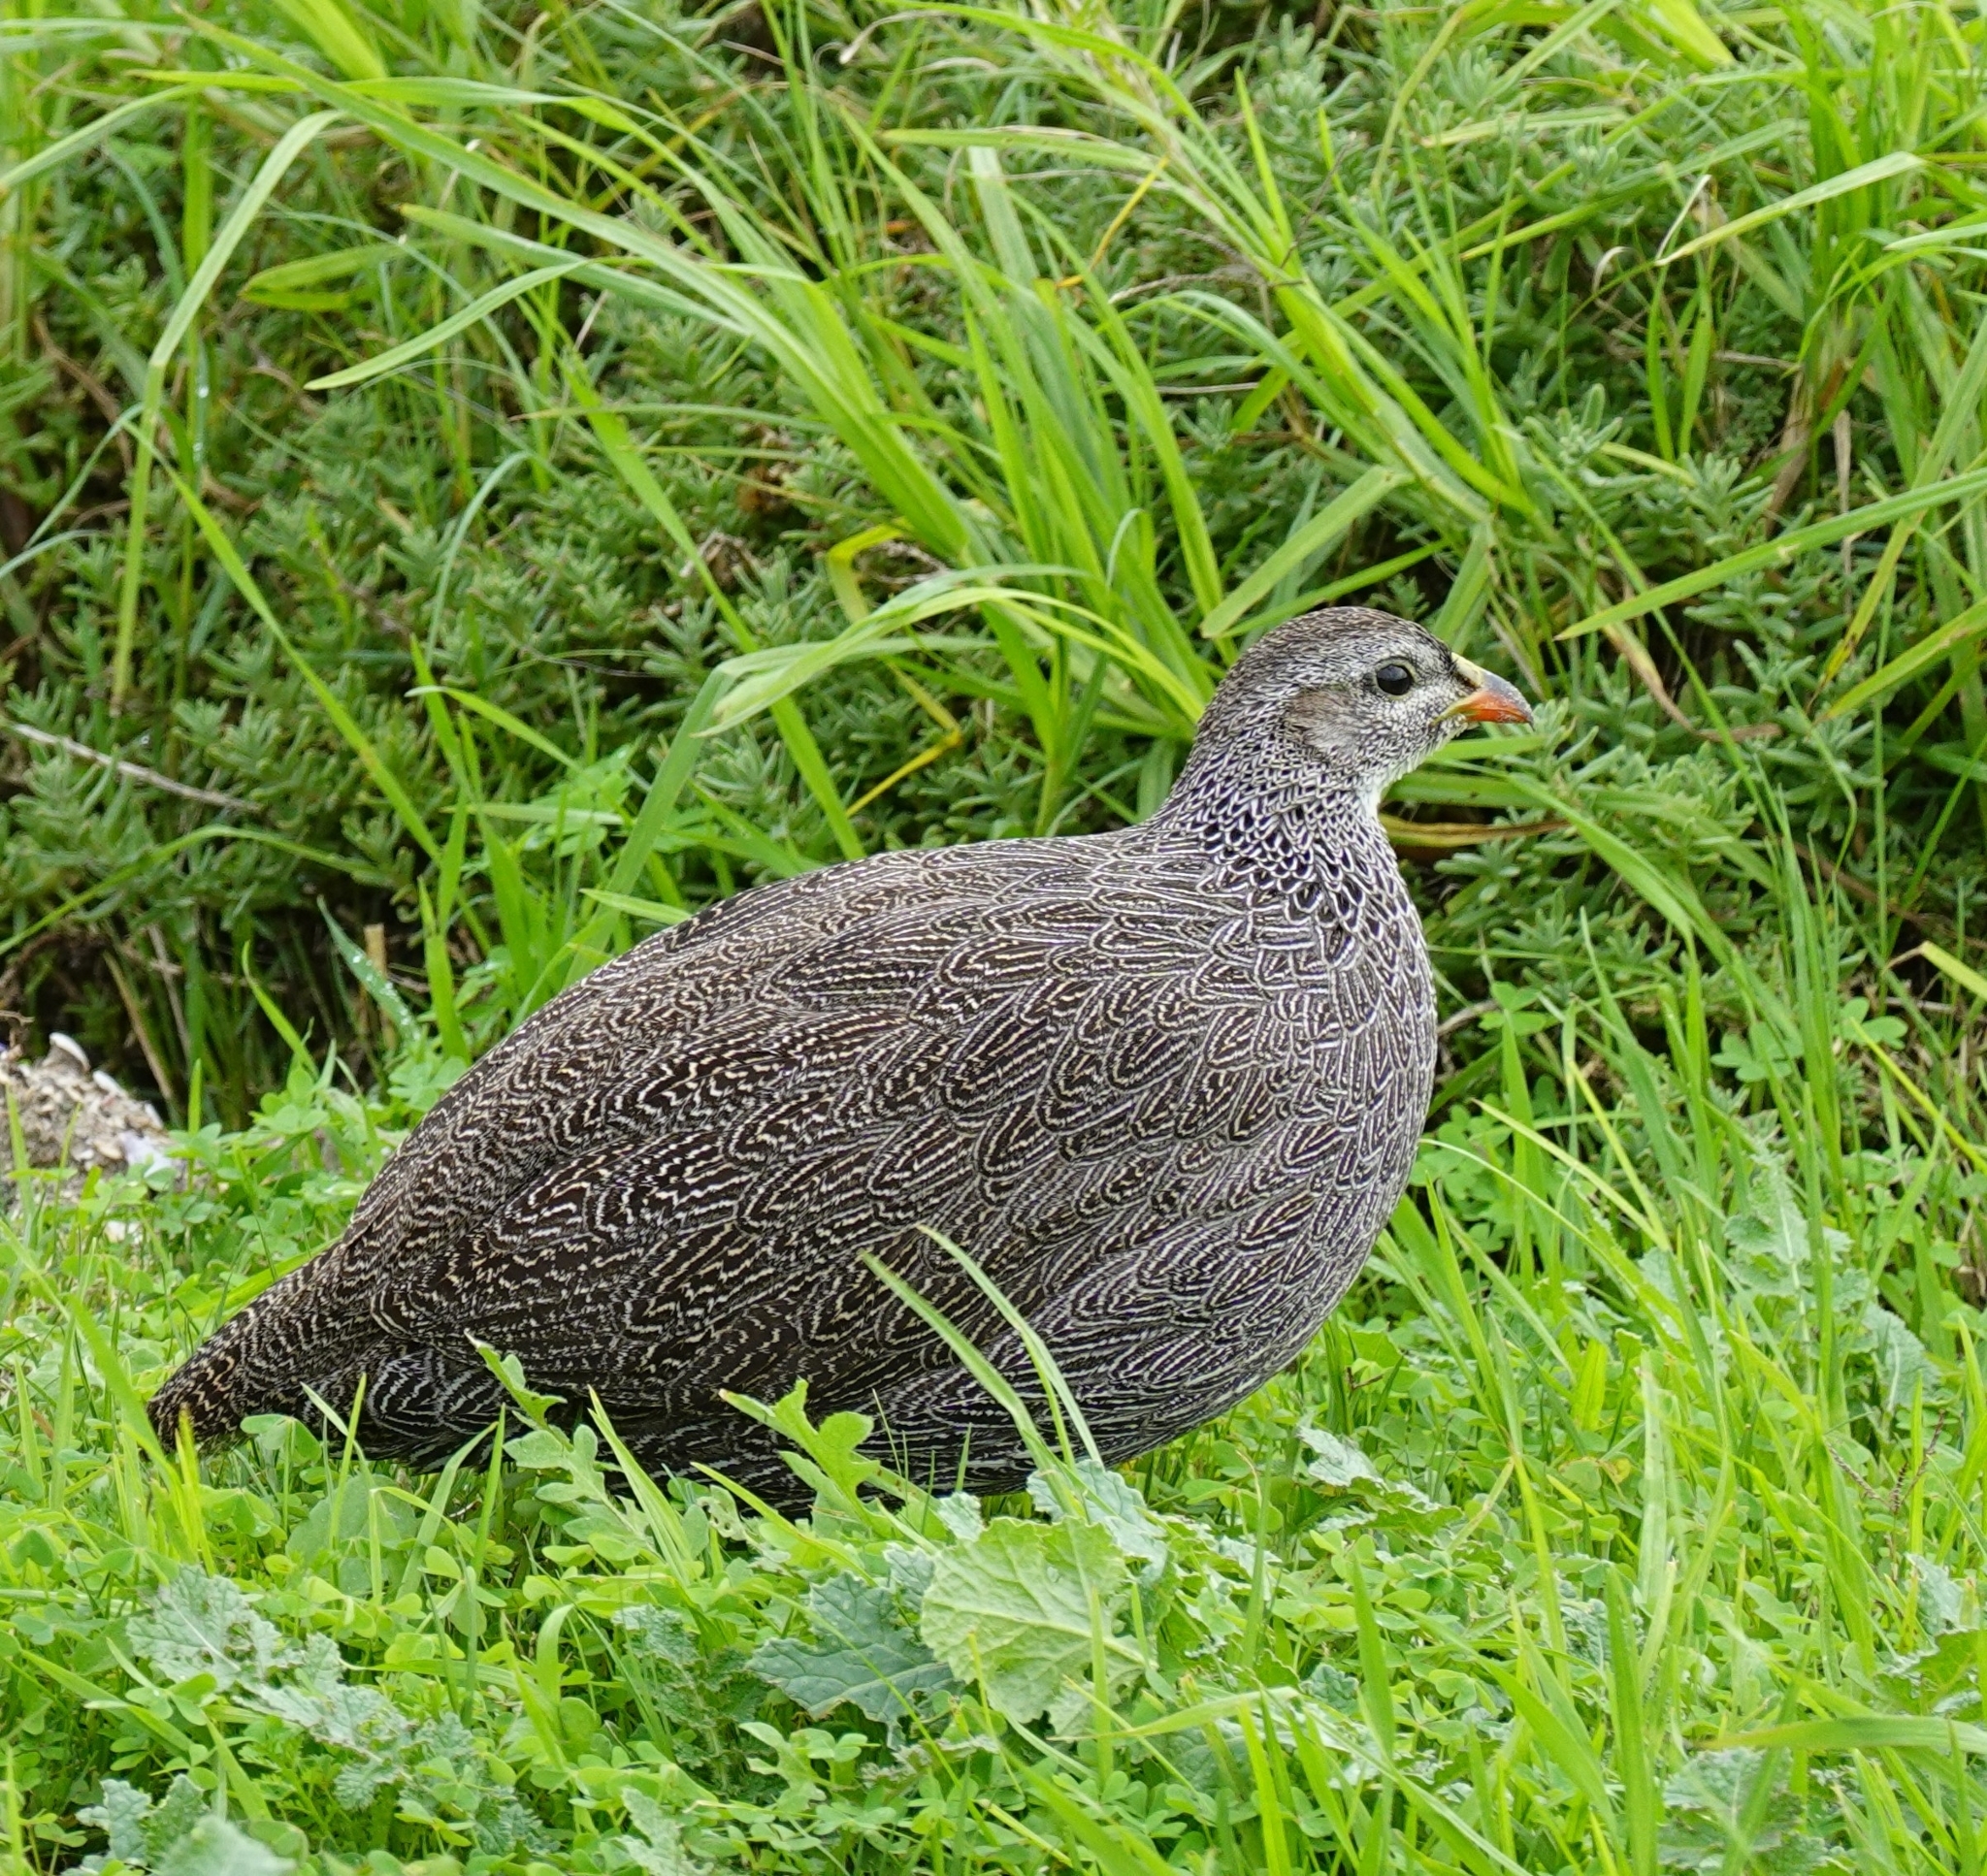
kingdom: Animalia
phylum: Chordata
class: Aves
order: Galliformes
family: Phasianidae
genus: Pternistis
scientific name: Pternistis capensis
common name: Cape spurfowl
